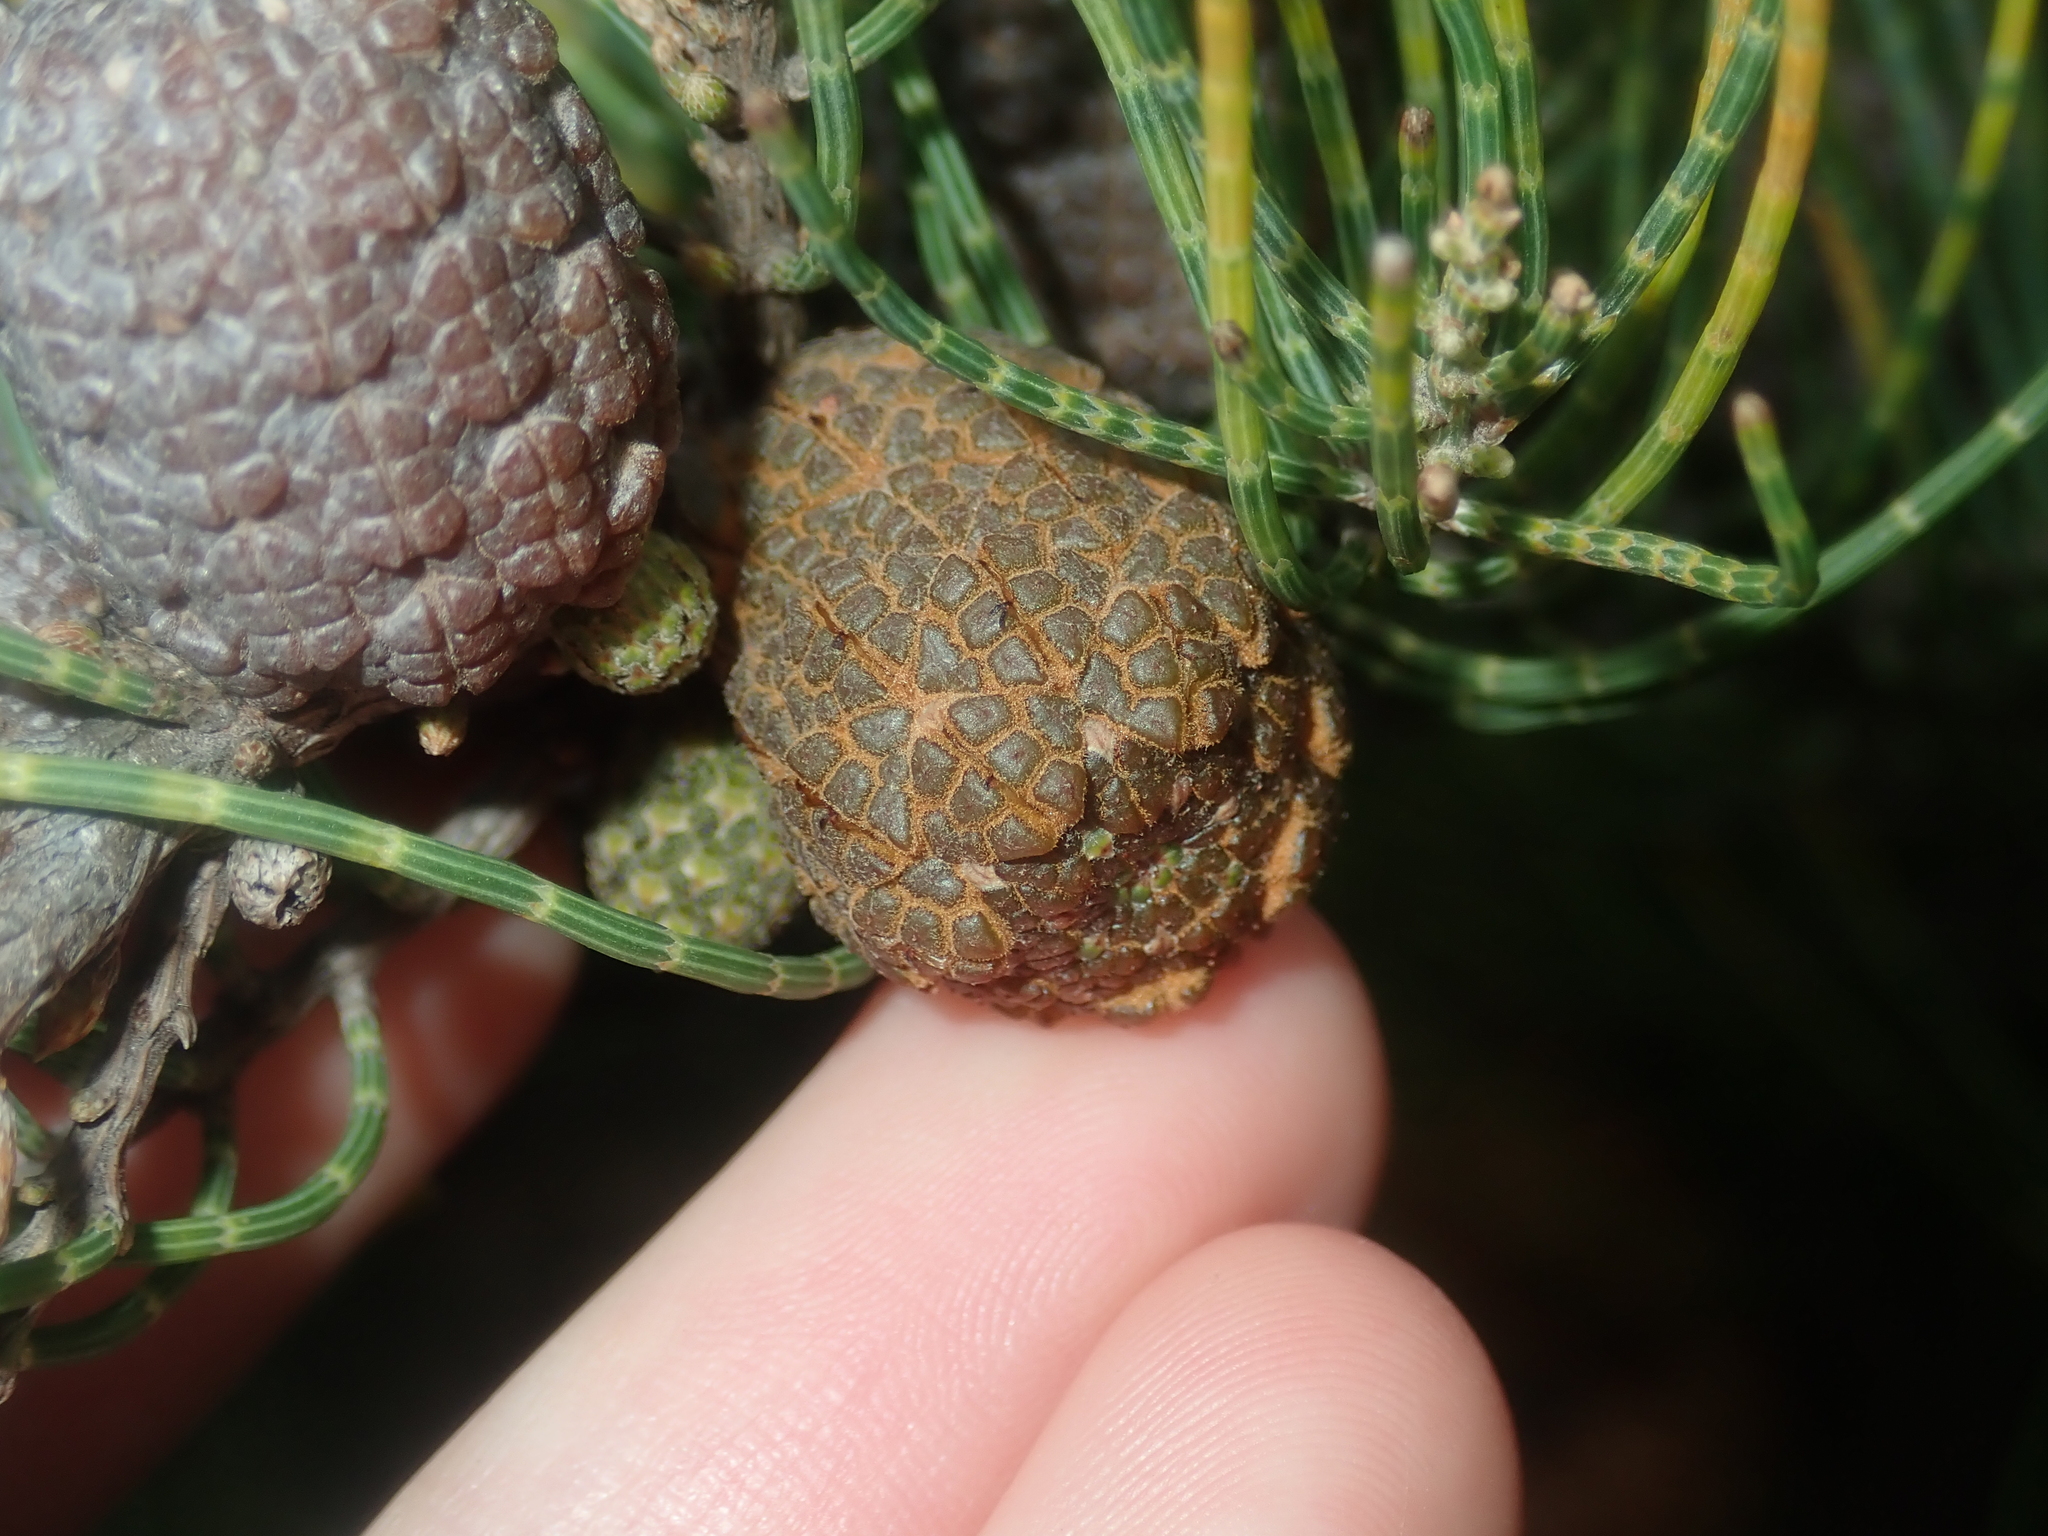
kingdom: Plantae
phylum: Tracheophyta
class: Magnoliopsida
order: Fagales
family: Casuarinaceae
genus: Allocasuarina
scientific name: Allocasuarina humilis
